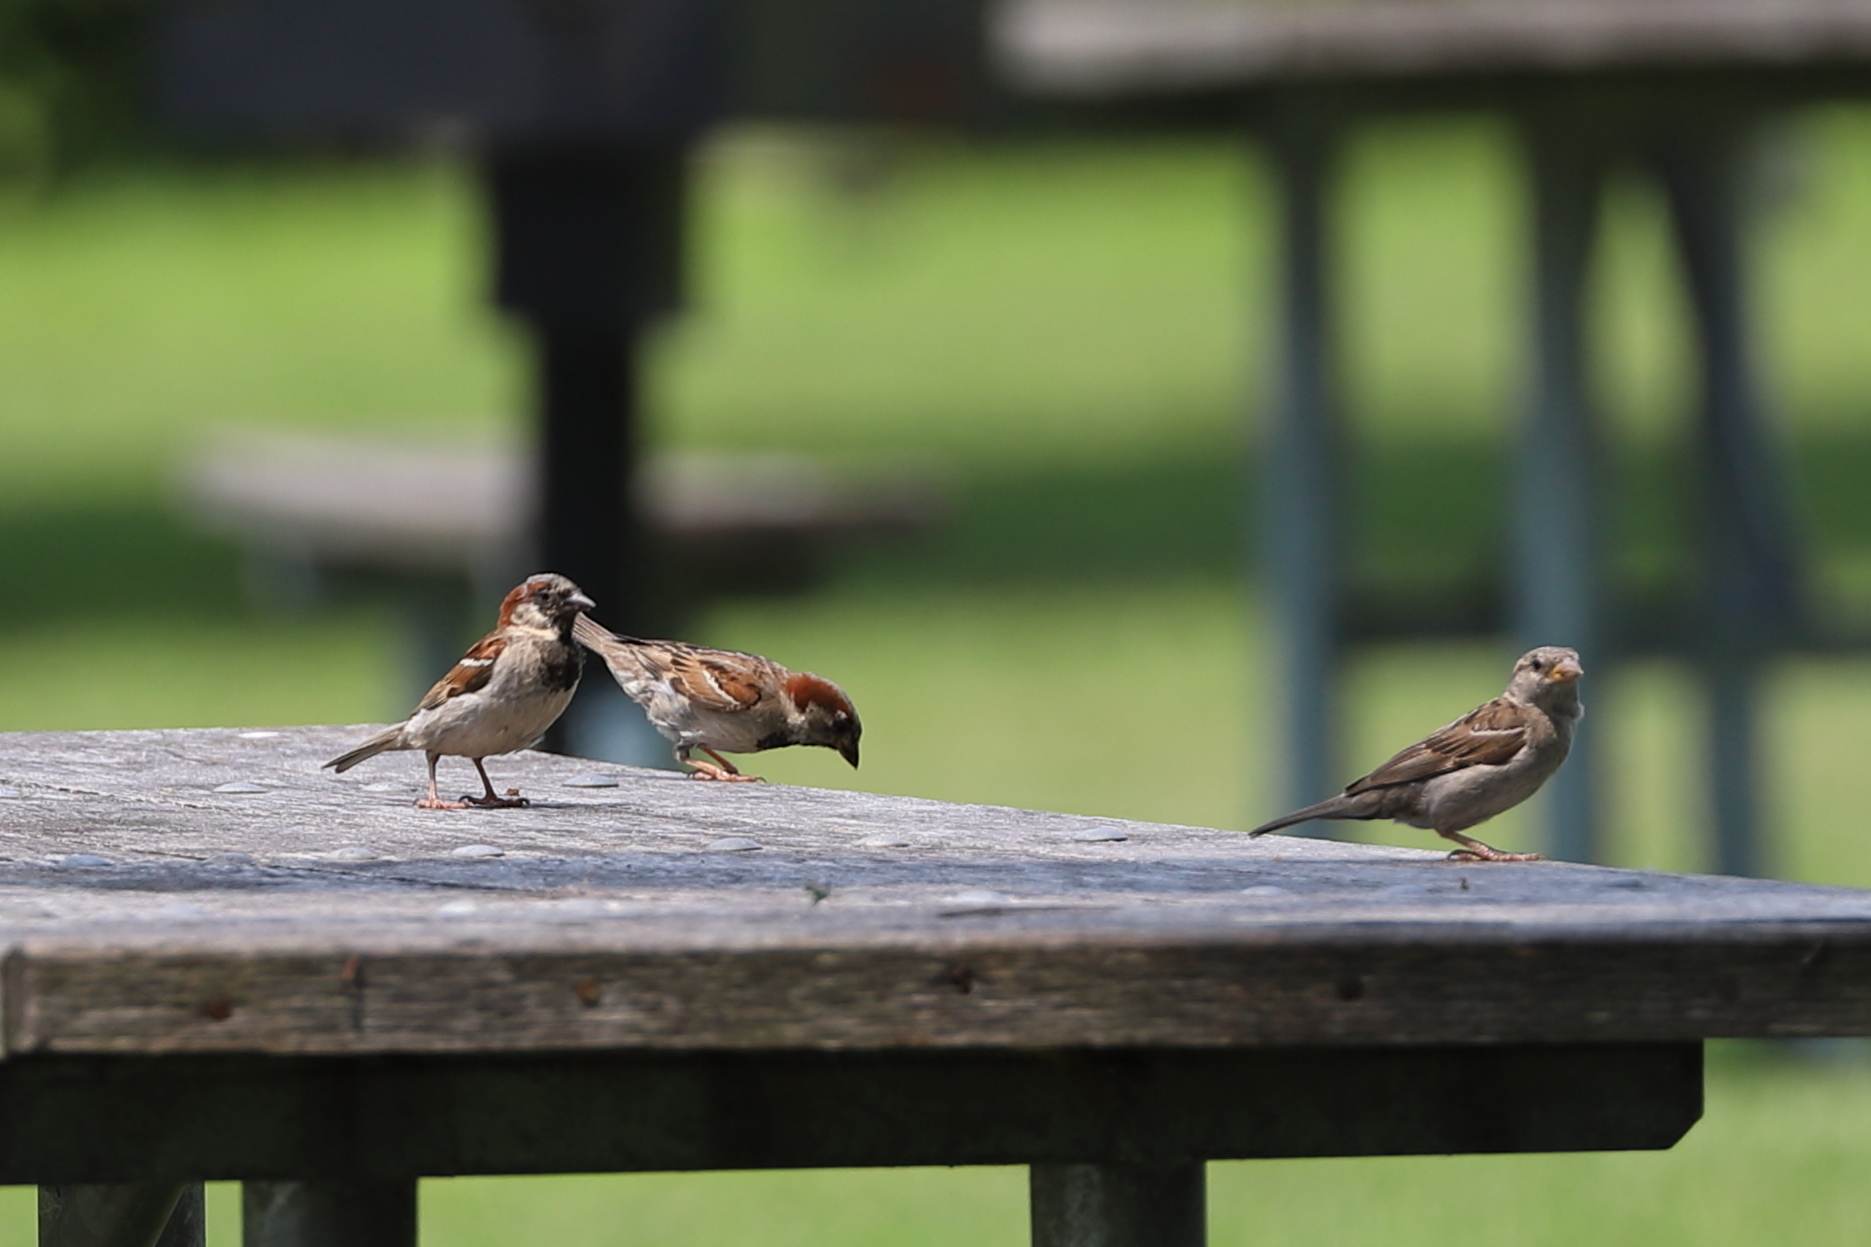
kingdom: Animalia
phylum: Chordata
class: Aves
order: Passeriformes
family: Passeridae
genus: Passer
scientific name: Passer domesticus
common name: House sparrow
